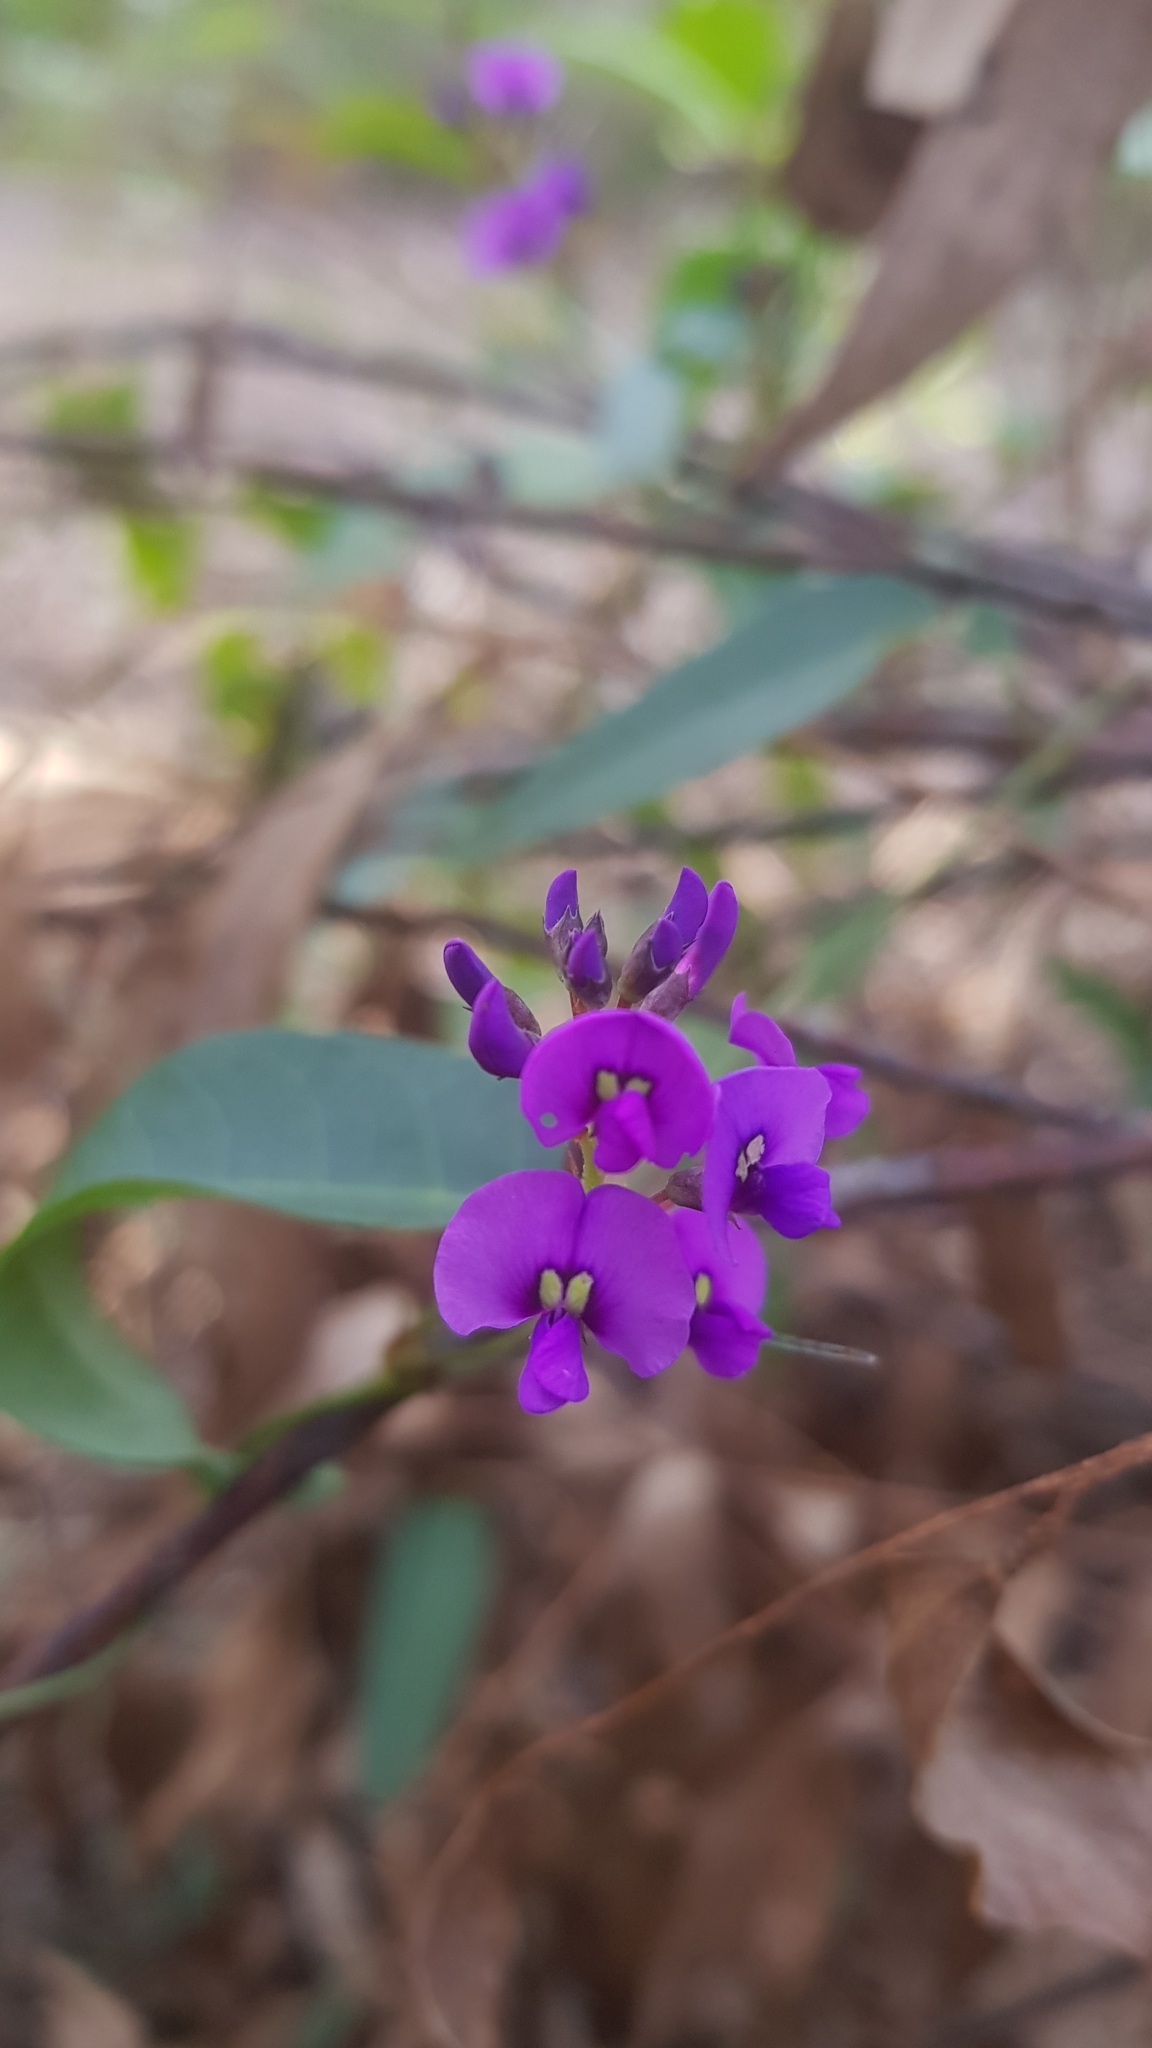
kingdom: Plantae
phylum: Tracheophyta
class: Magnoliopsida
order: Fabales
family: Fabaceae
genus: Hardenbergia
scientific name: Hardenbergia violacea
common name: Coral-pea
